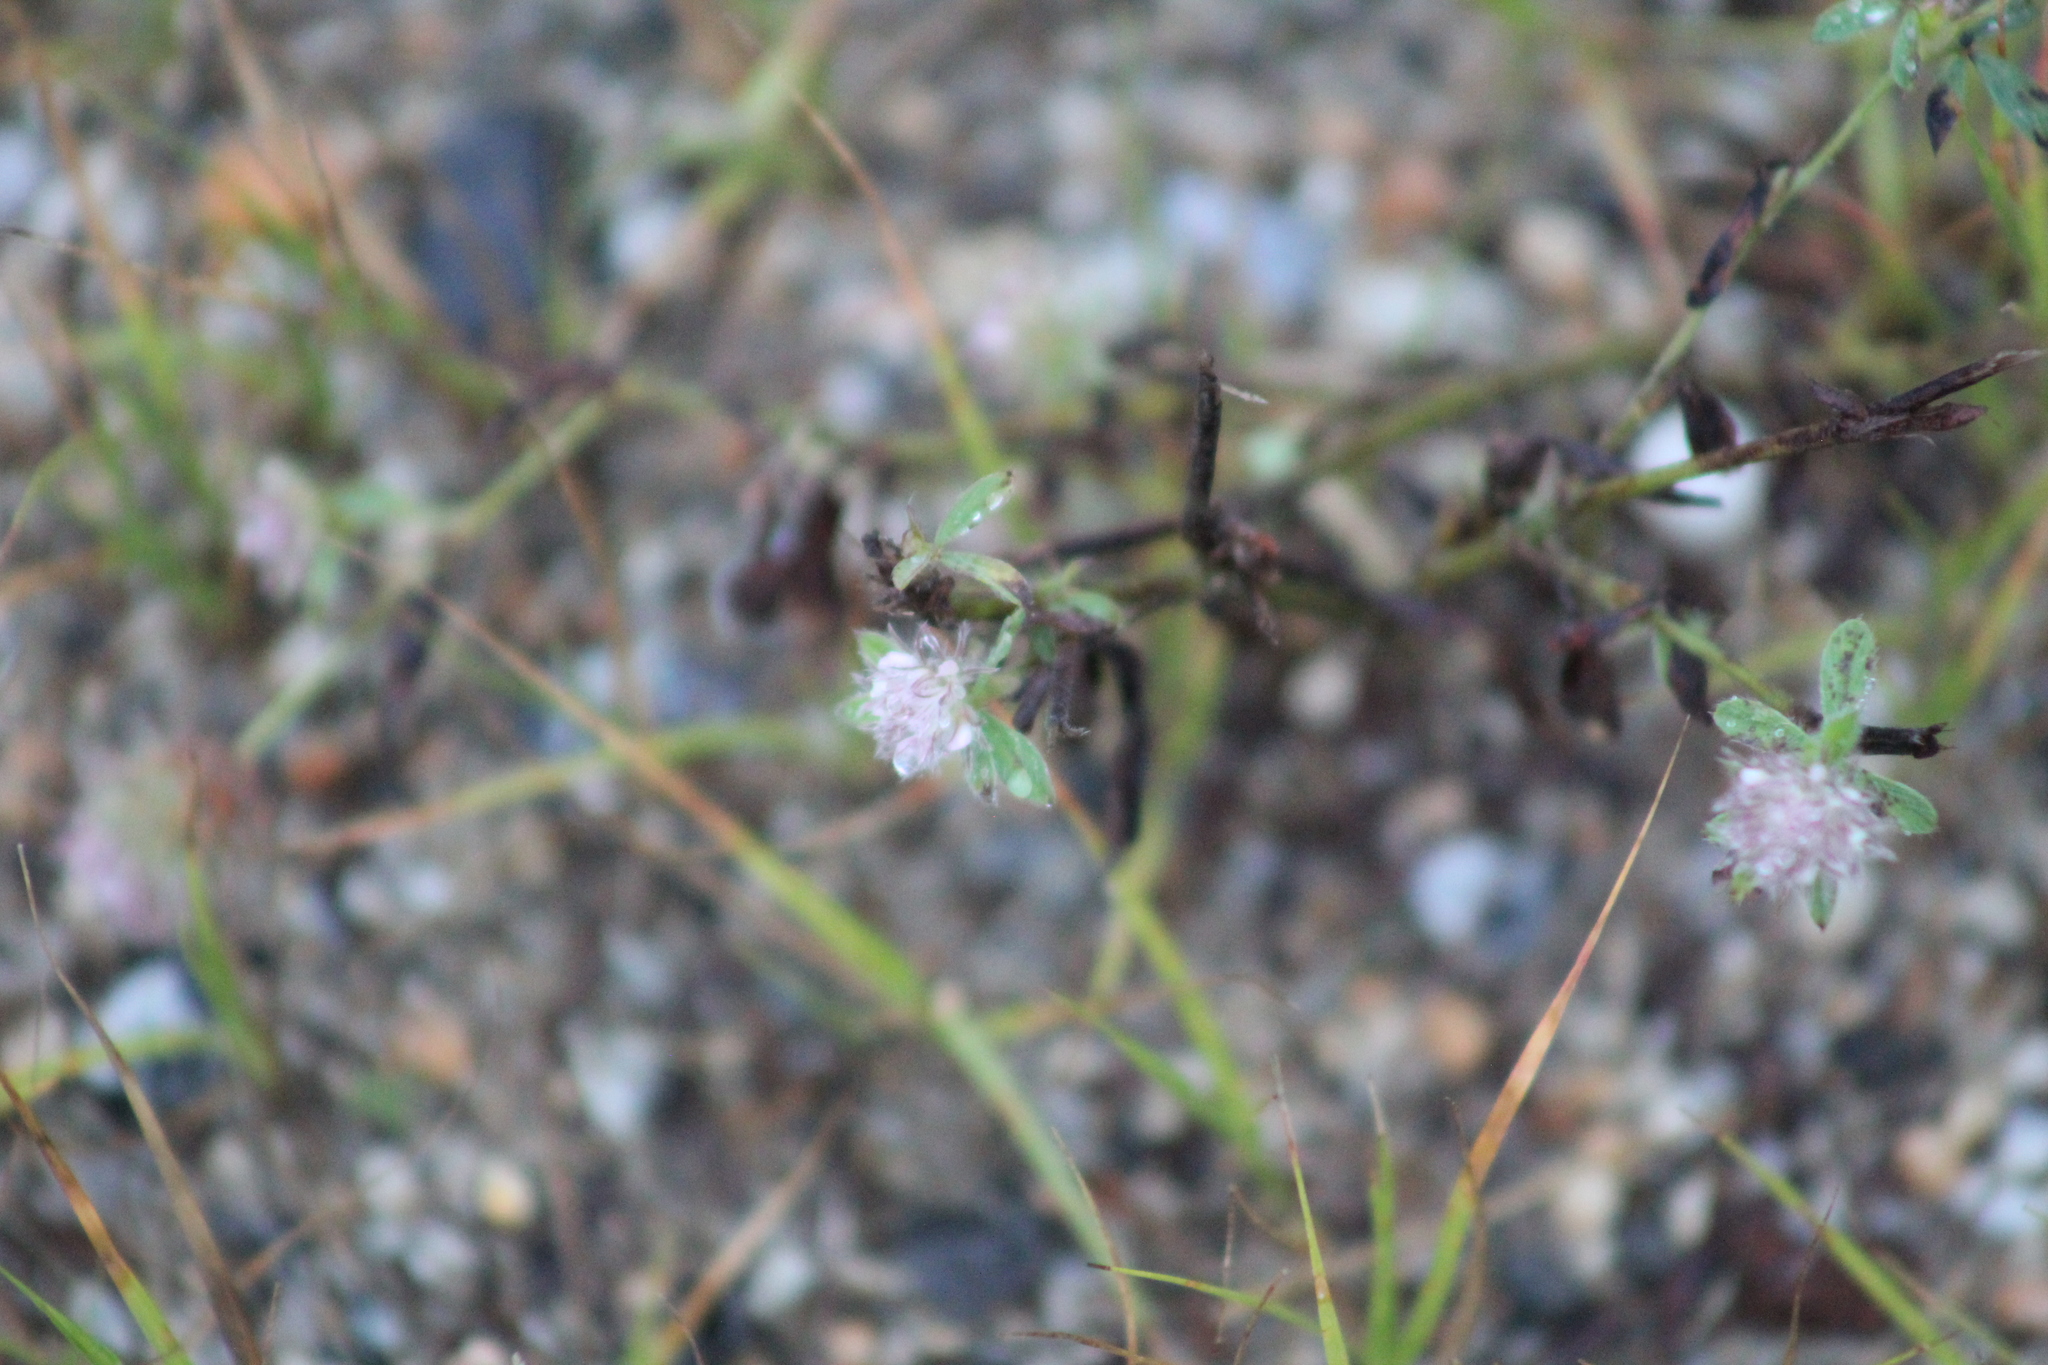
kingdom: Plantae
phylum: Tracheophyta
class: Magnoliopsida
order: Fabales
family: Fabaceae
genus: Trifolium
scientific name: Trifolium arvense
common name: Hare's-foot clover
